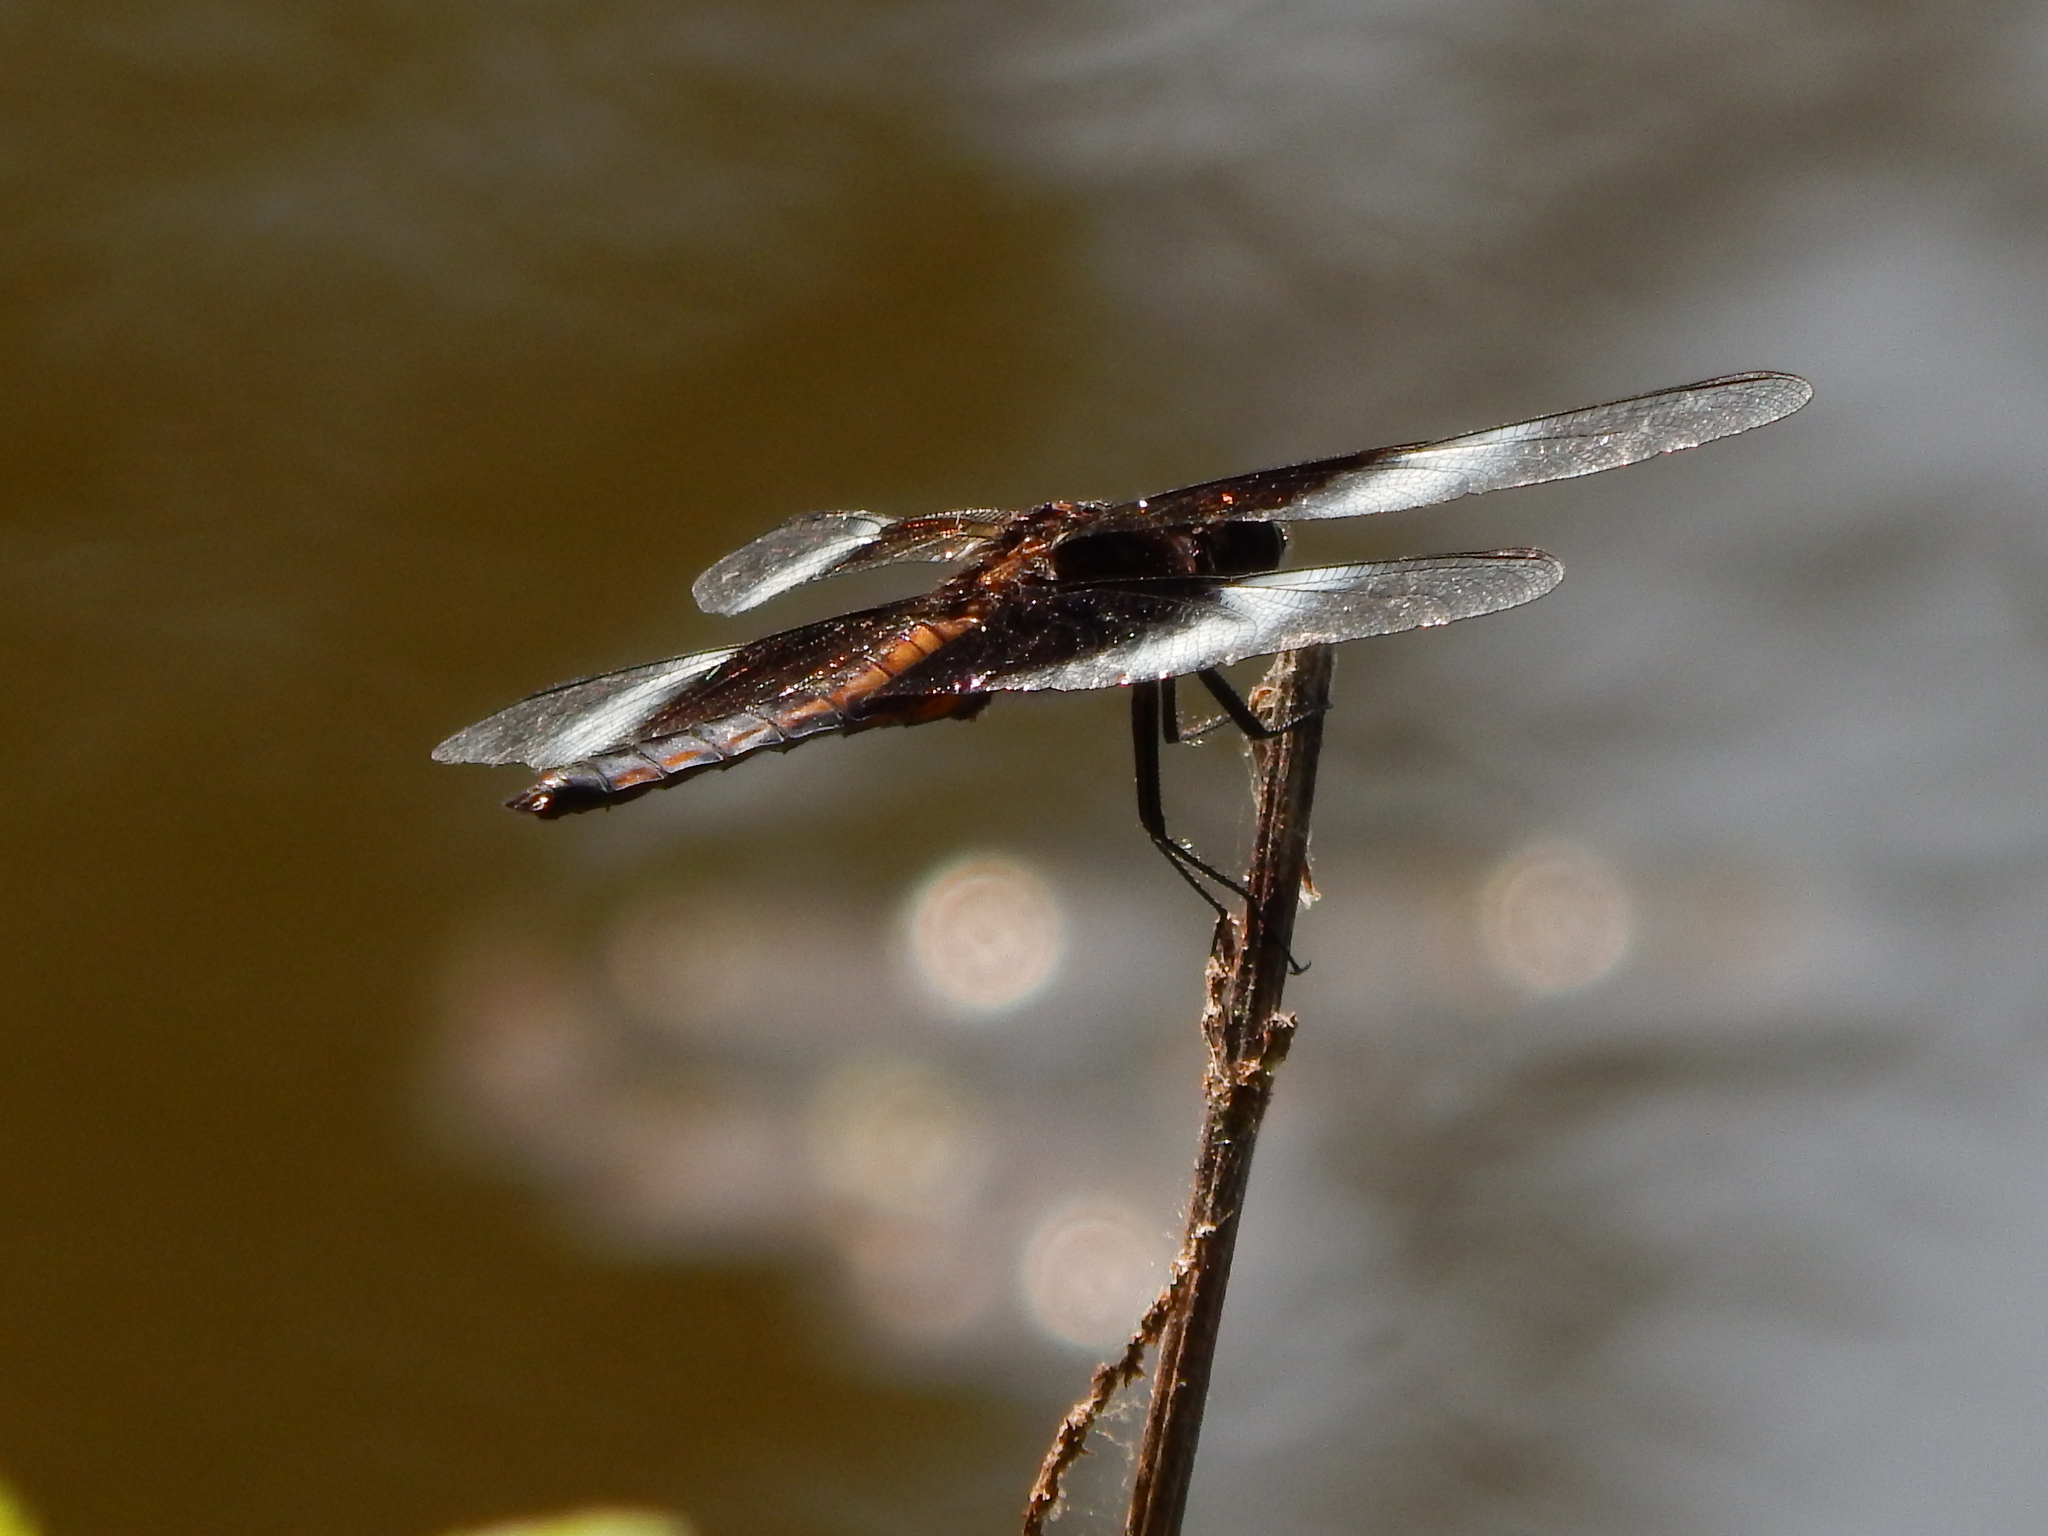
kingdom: Animalia
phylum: Arthropoda
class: Insecta
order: Odonata
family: Libellulidae
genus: Libellula
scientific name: Libellula luctuosa
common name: Widow skimmer
